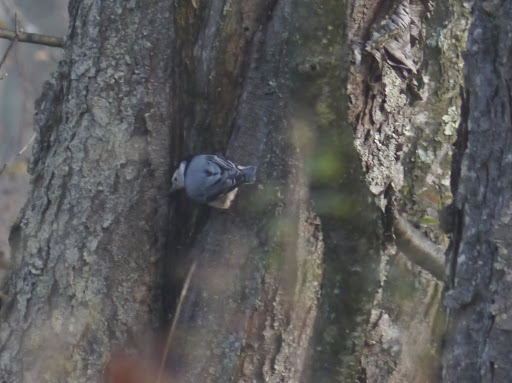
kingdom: Animalia
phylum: Chordata
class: Aves
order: Passeriformes
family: Sittidae
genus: Sitta
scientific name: Sitta carolinensis
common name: White-breasted nuthatch
